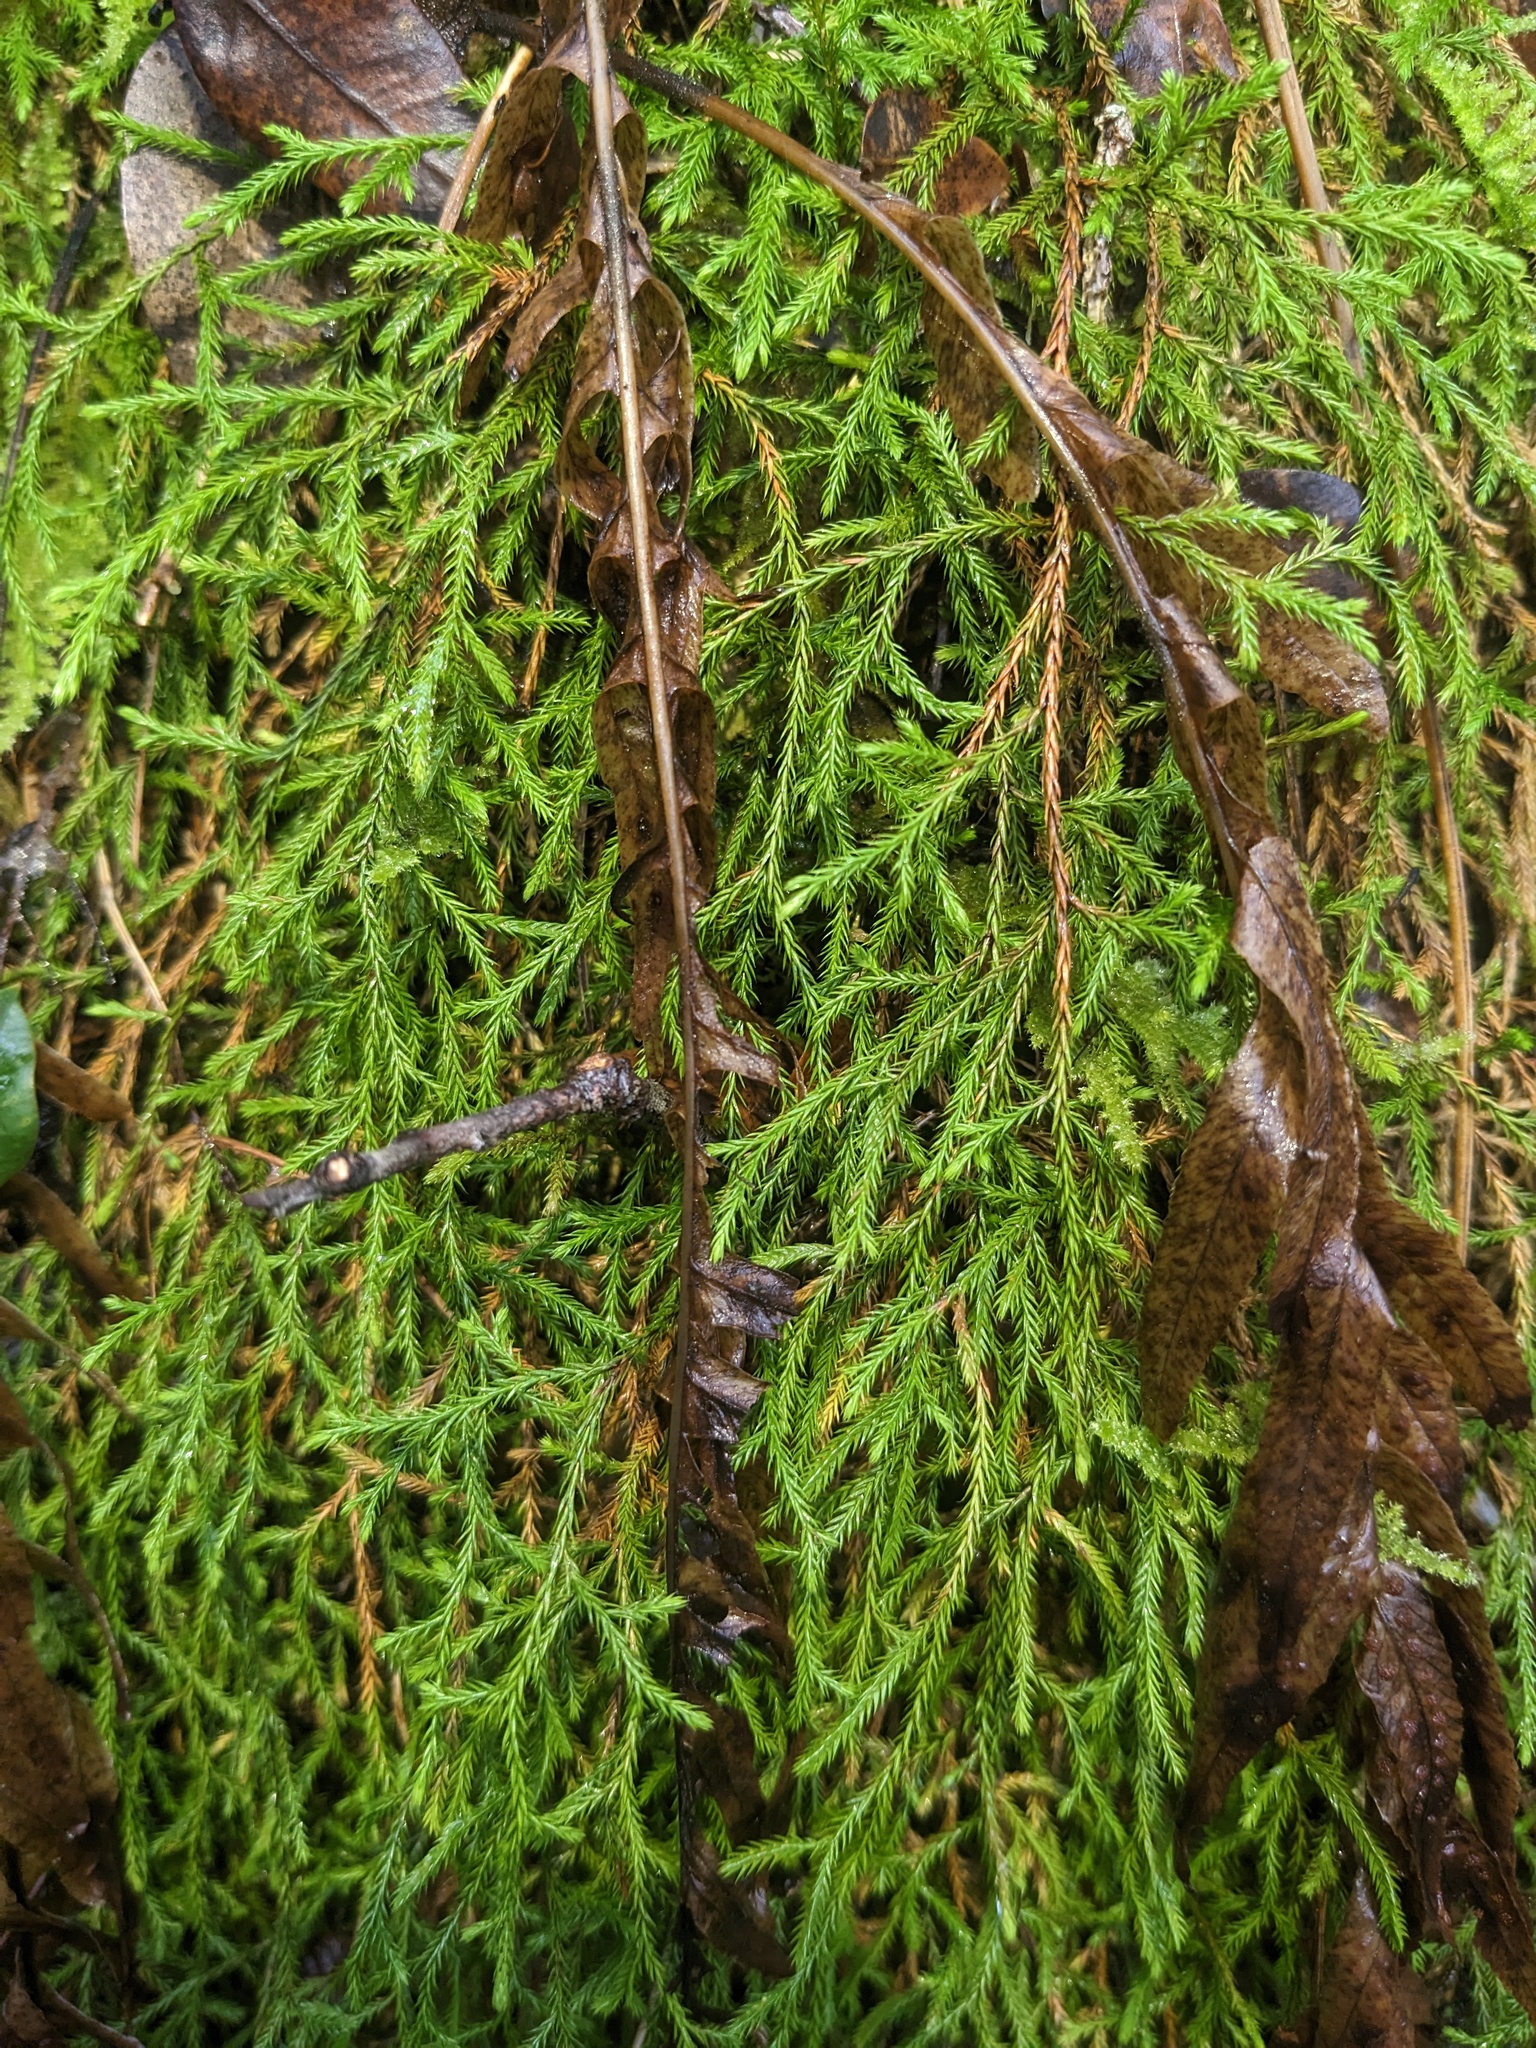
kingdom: Plantae
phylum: Tracheophyta
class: Lycopodiopsida
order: Selaginellales
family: Selaginellaceae
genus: Selaginella
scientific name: Selaginella oregana
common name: Oregon selaginella
